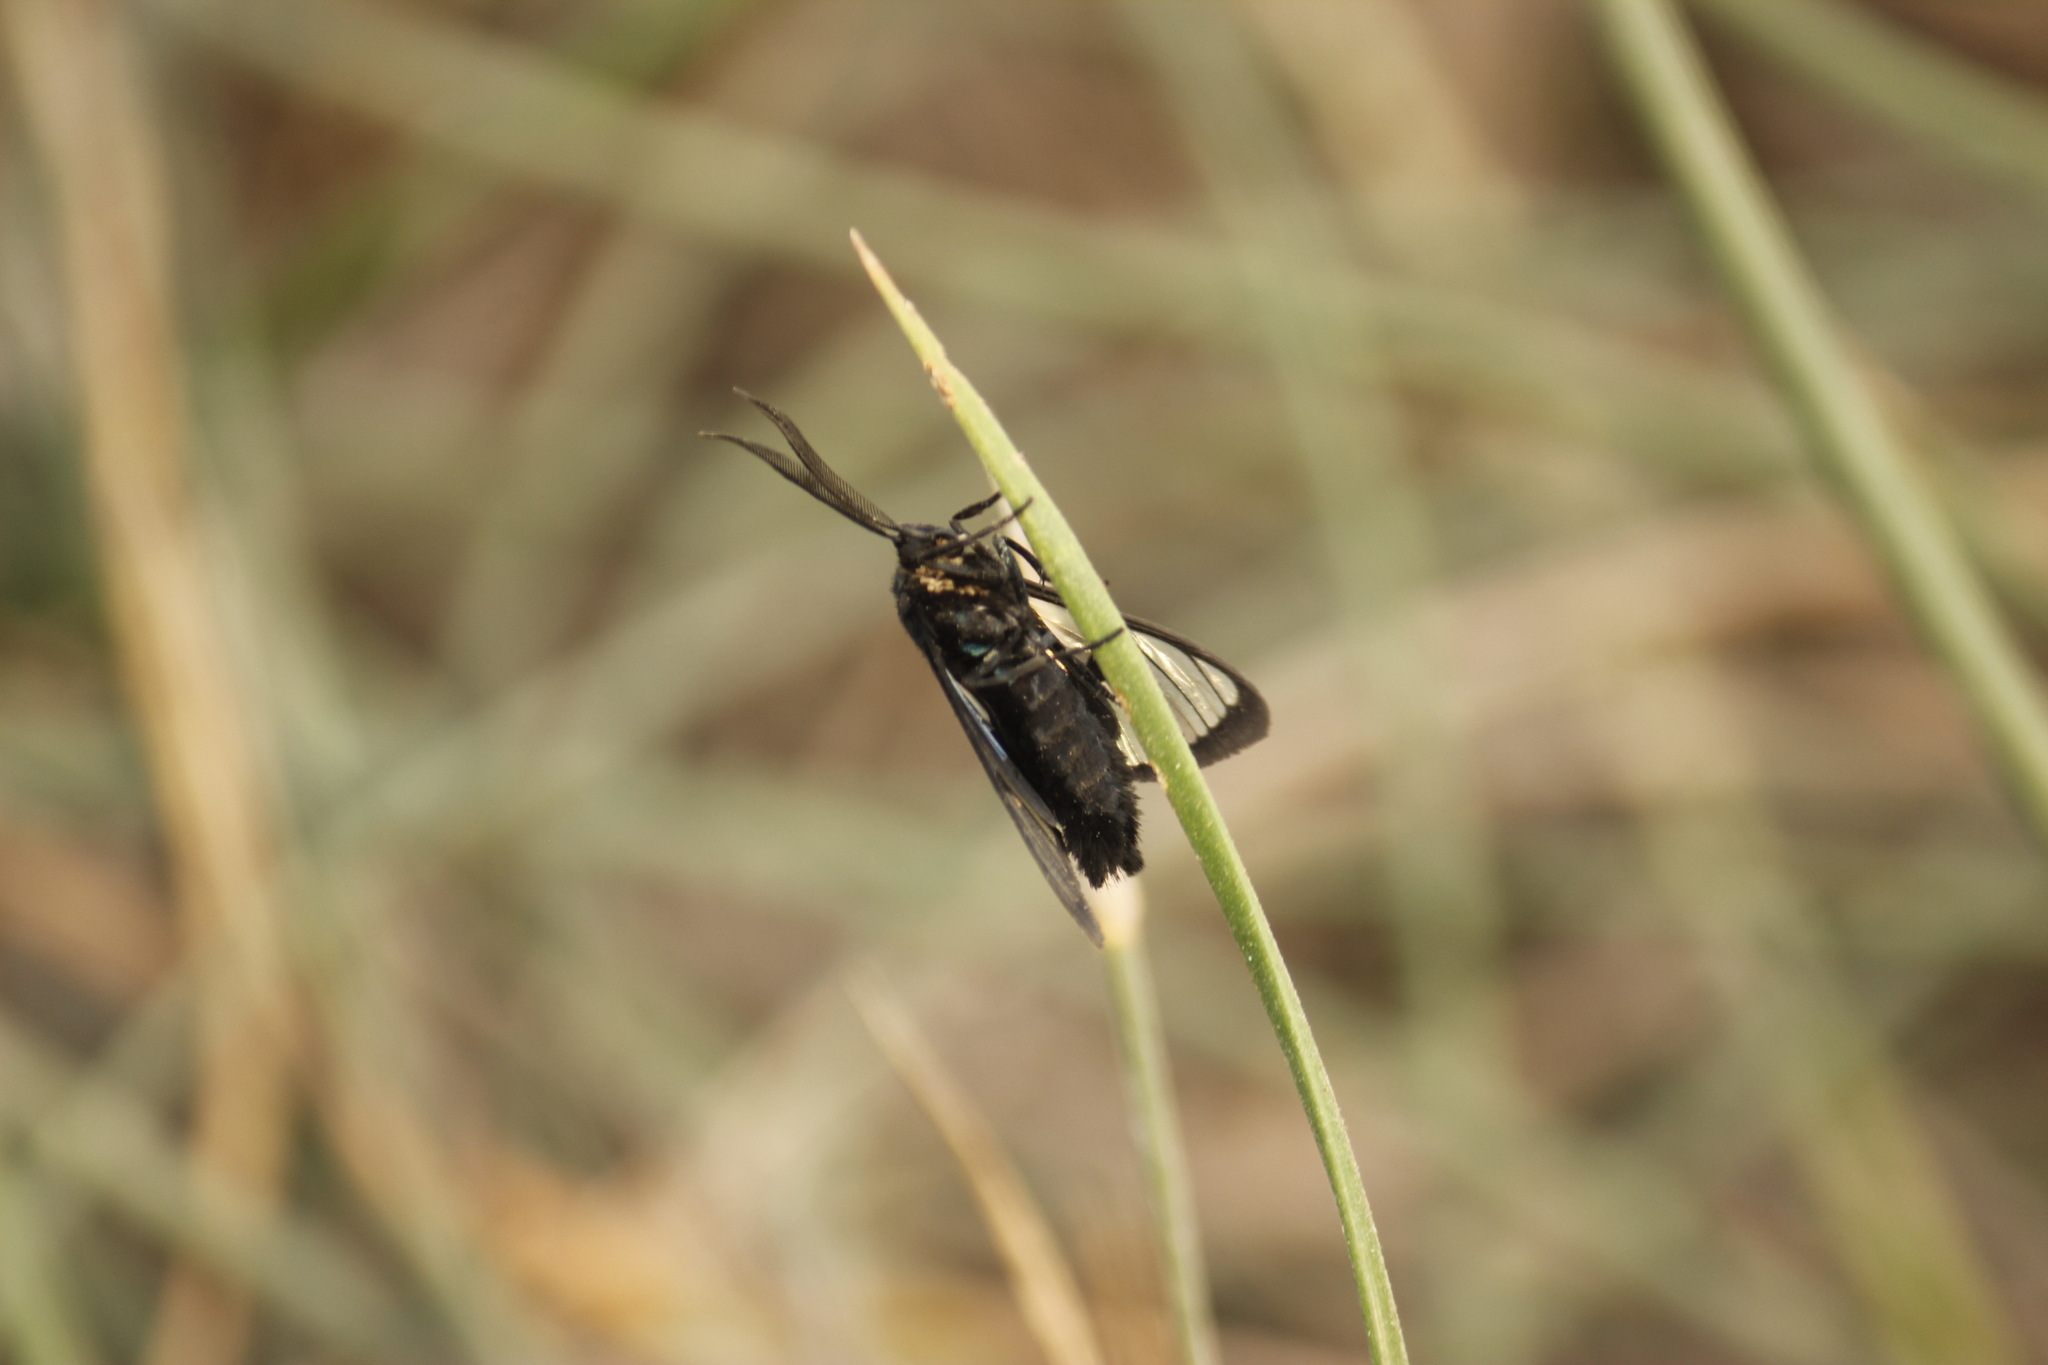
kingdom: Animalia
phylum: Arthropoda
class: Insecta
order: Lepidoptera
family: Erebidae
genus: Dinia
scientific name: Dinia subapicalis
